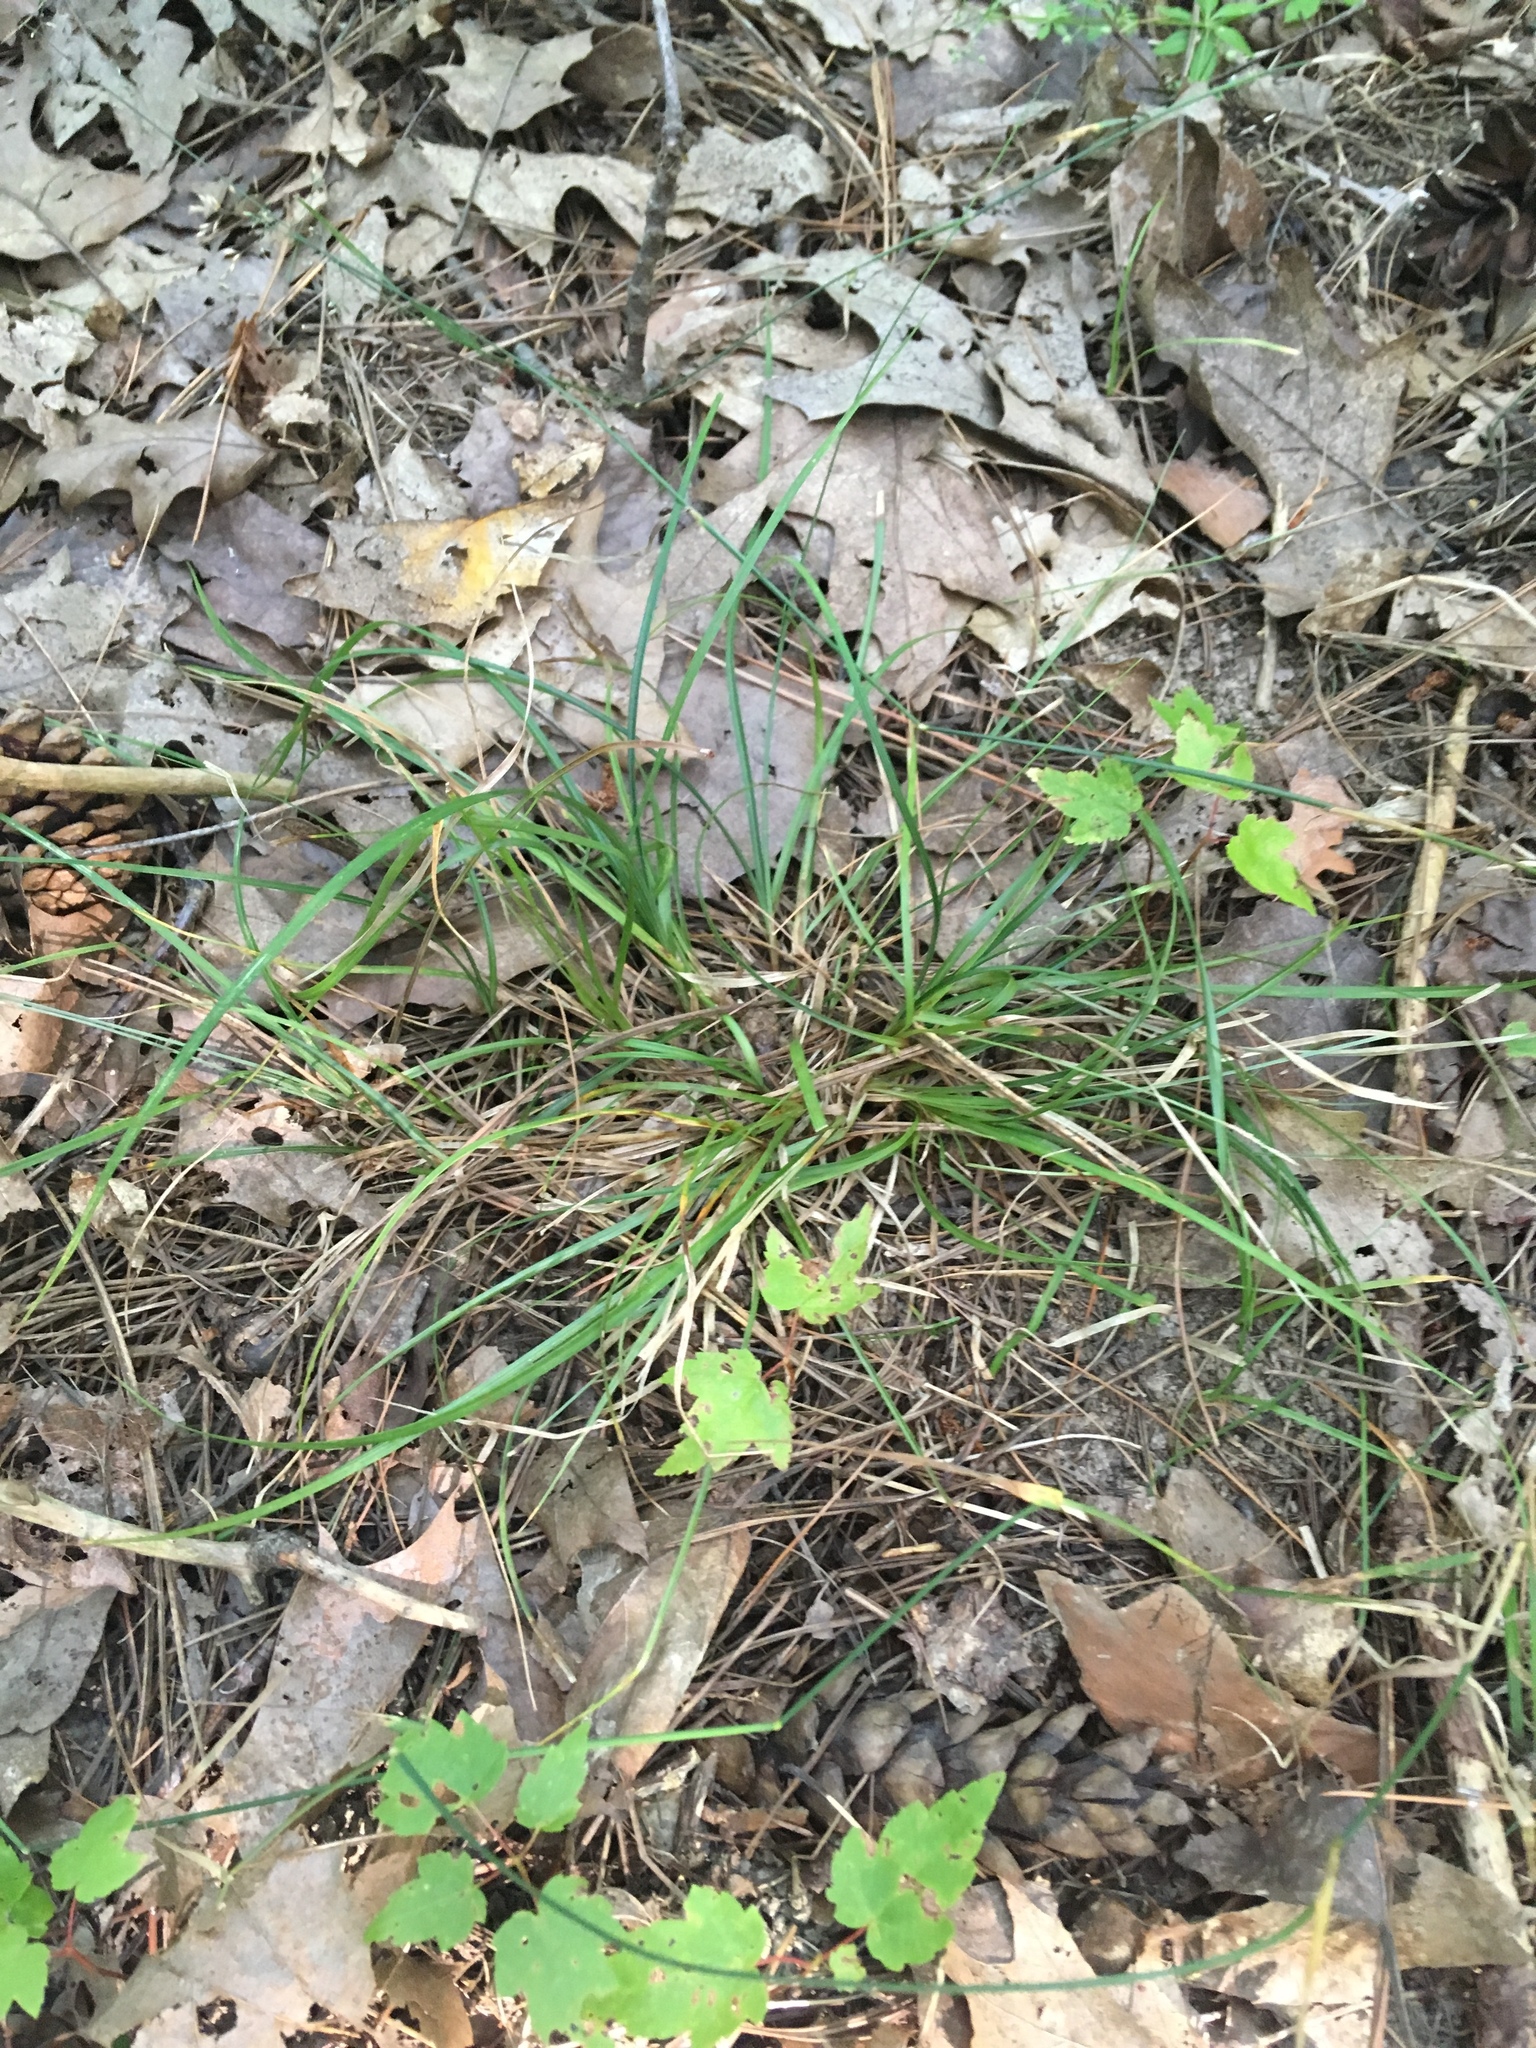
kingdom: Plantae
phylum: Tracheophyta
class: Liliopsida
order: Poales
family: Cyperaceae
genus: Carex
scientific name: Carex willdenowii
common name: Willdenow's sedge
